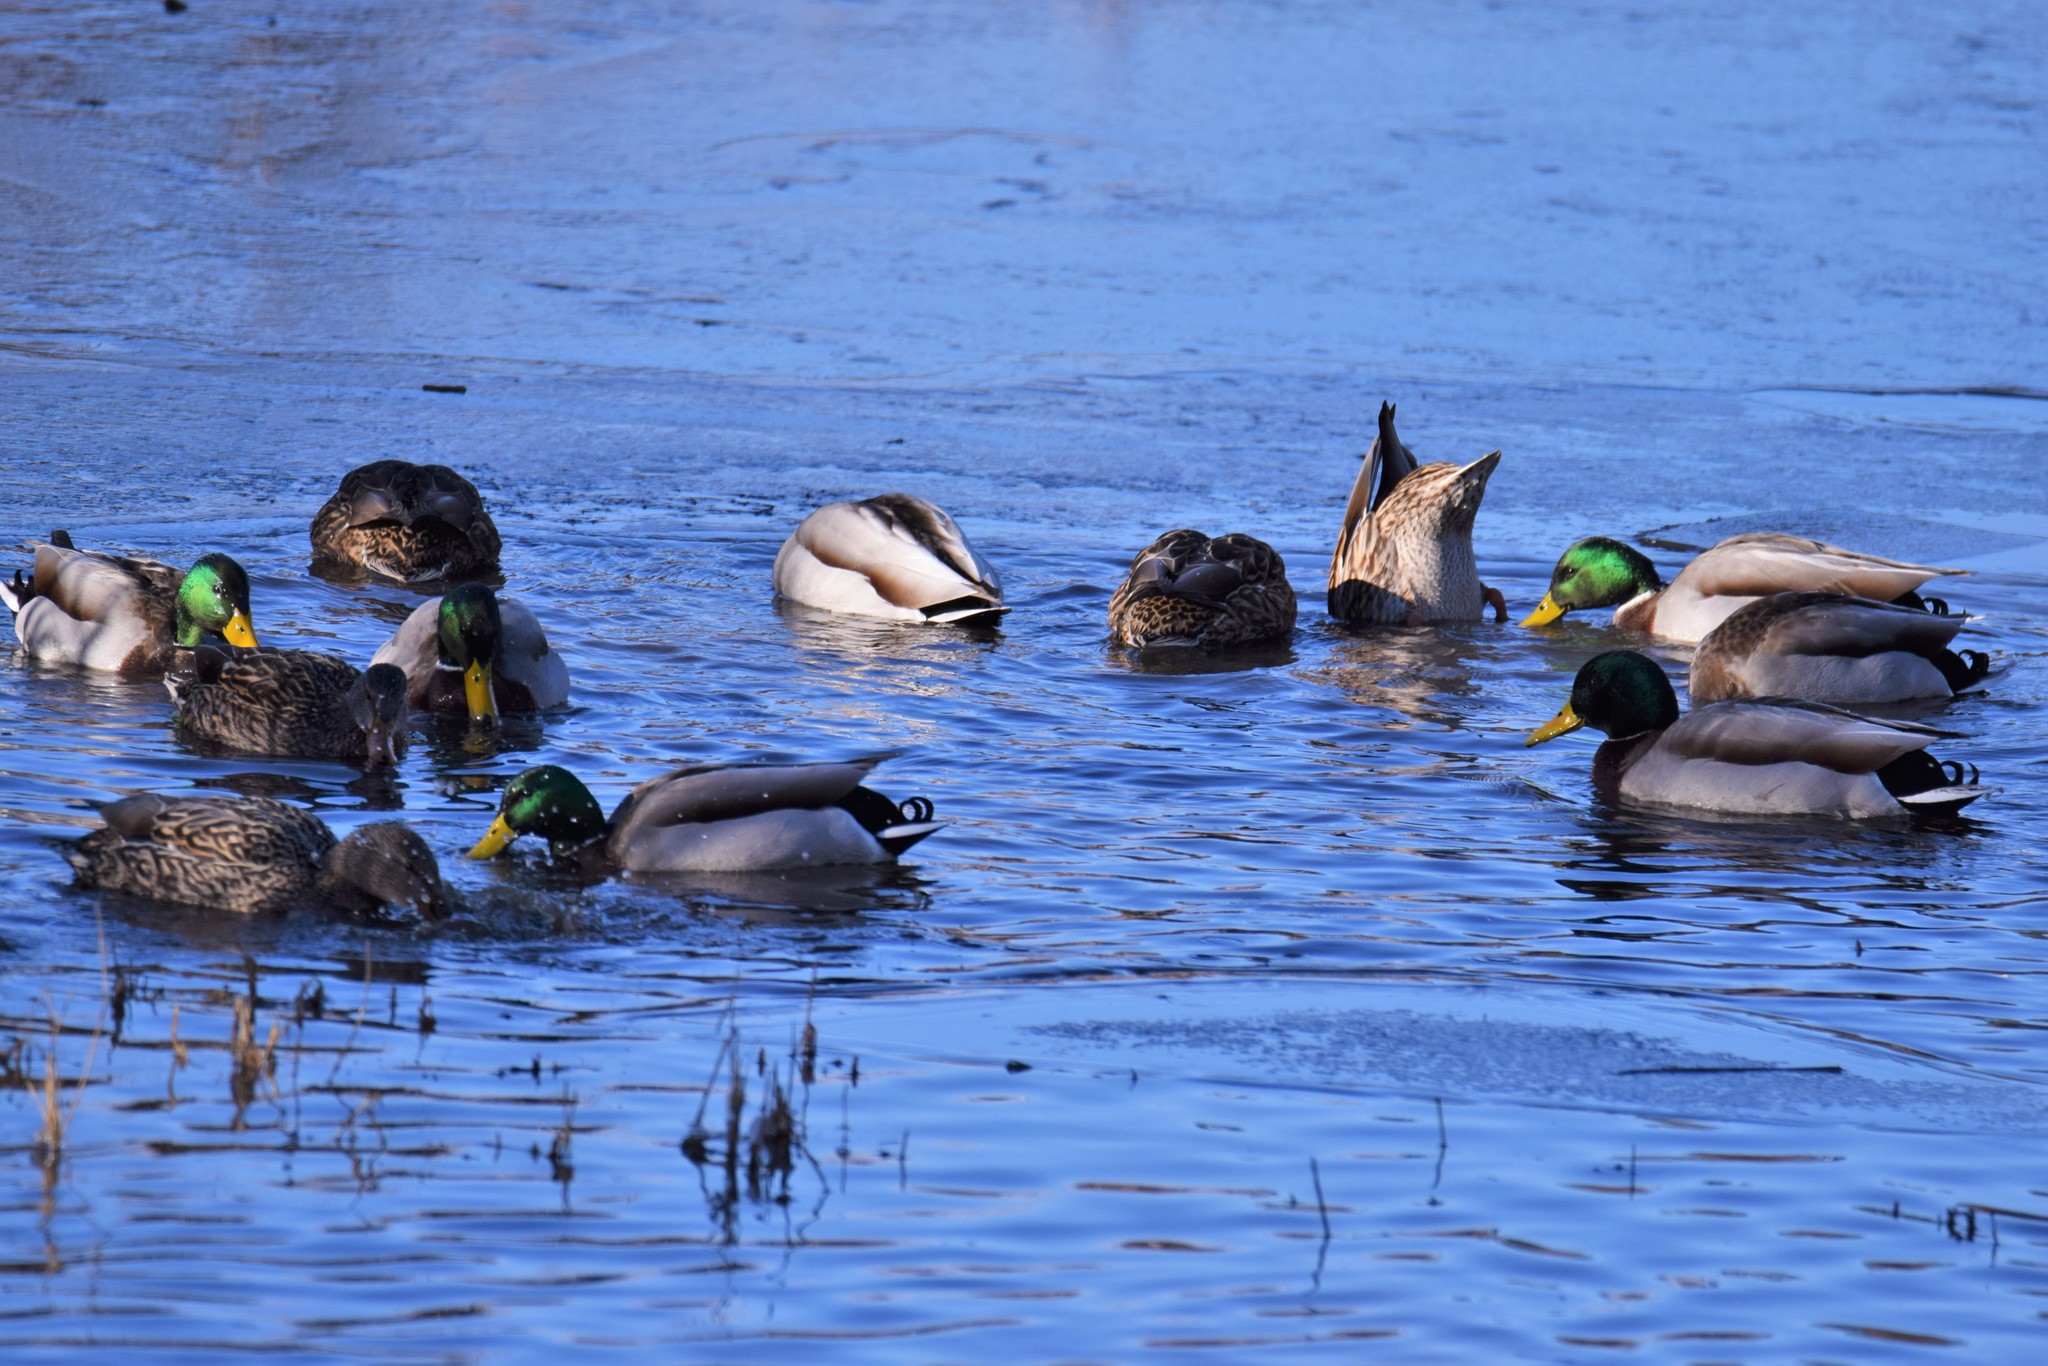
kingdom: Animalia
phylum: Chordata
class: Aves
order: Anseriformes
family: Anatidae
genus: Anas
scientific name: Anas platyrhynchos
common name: Mallard
